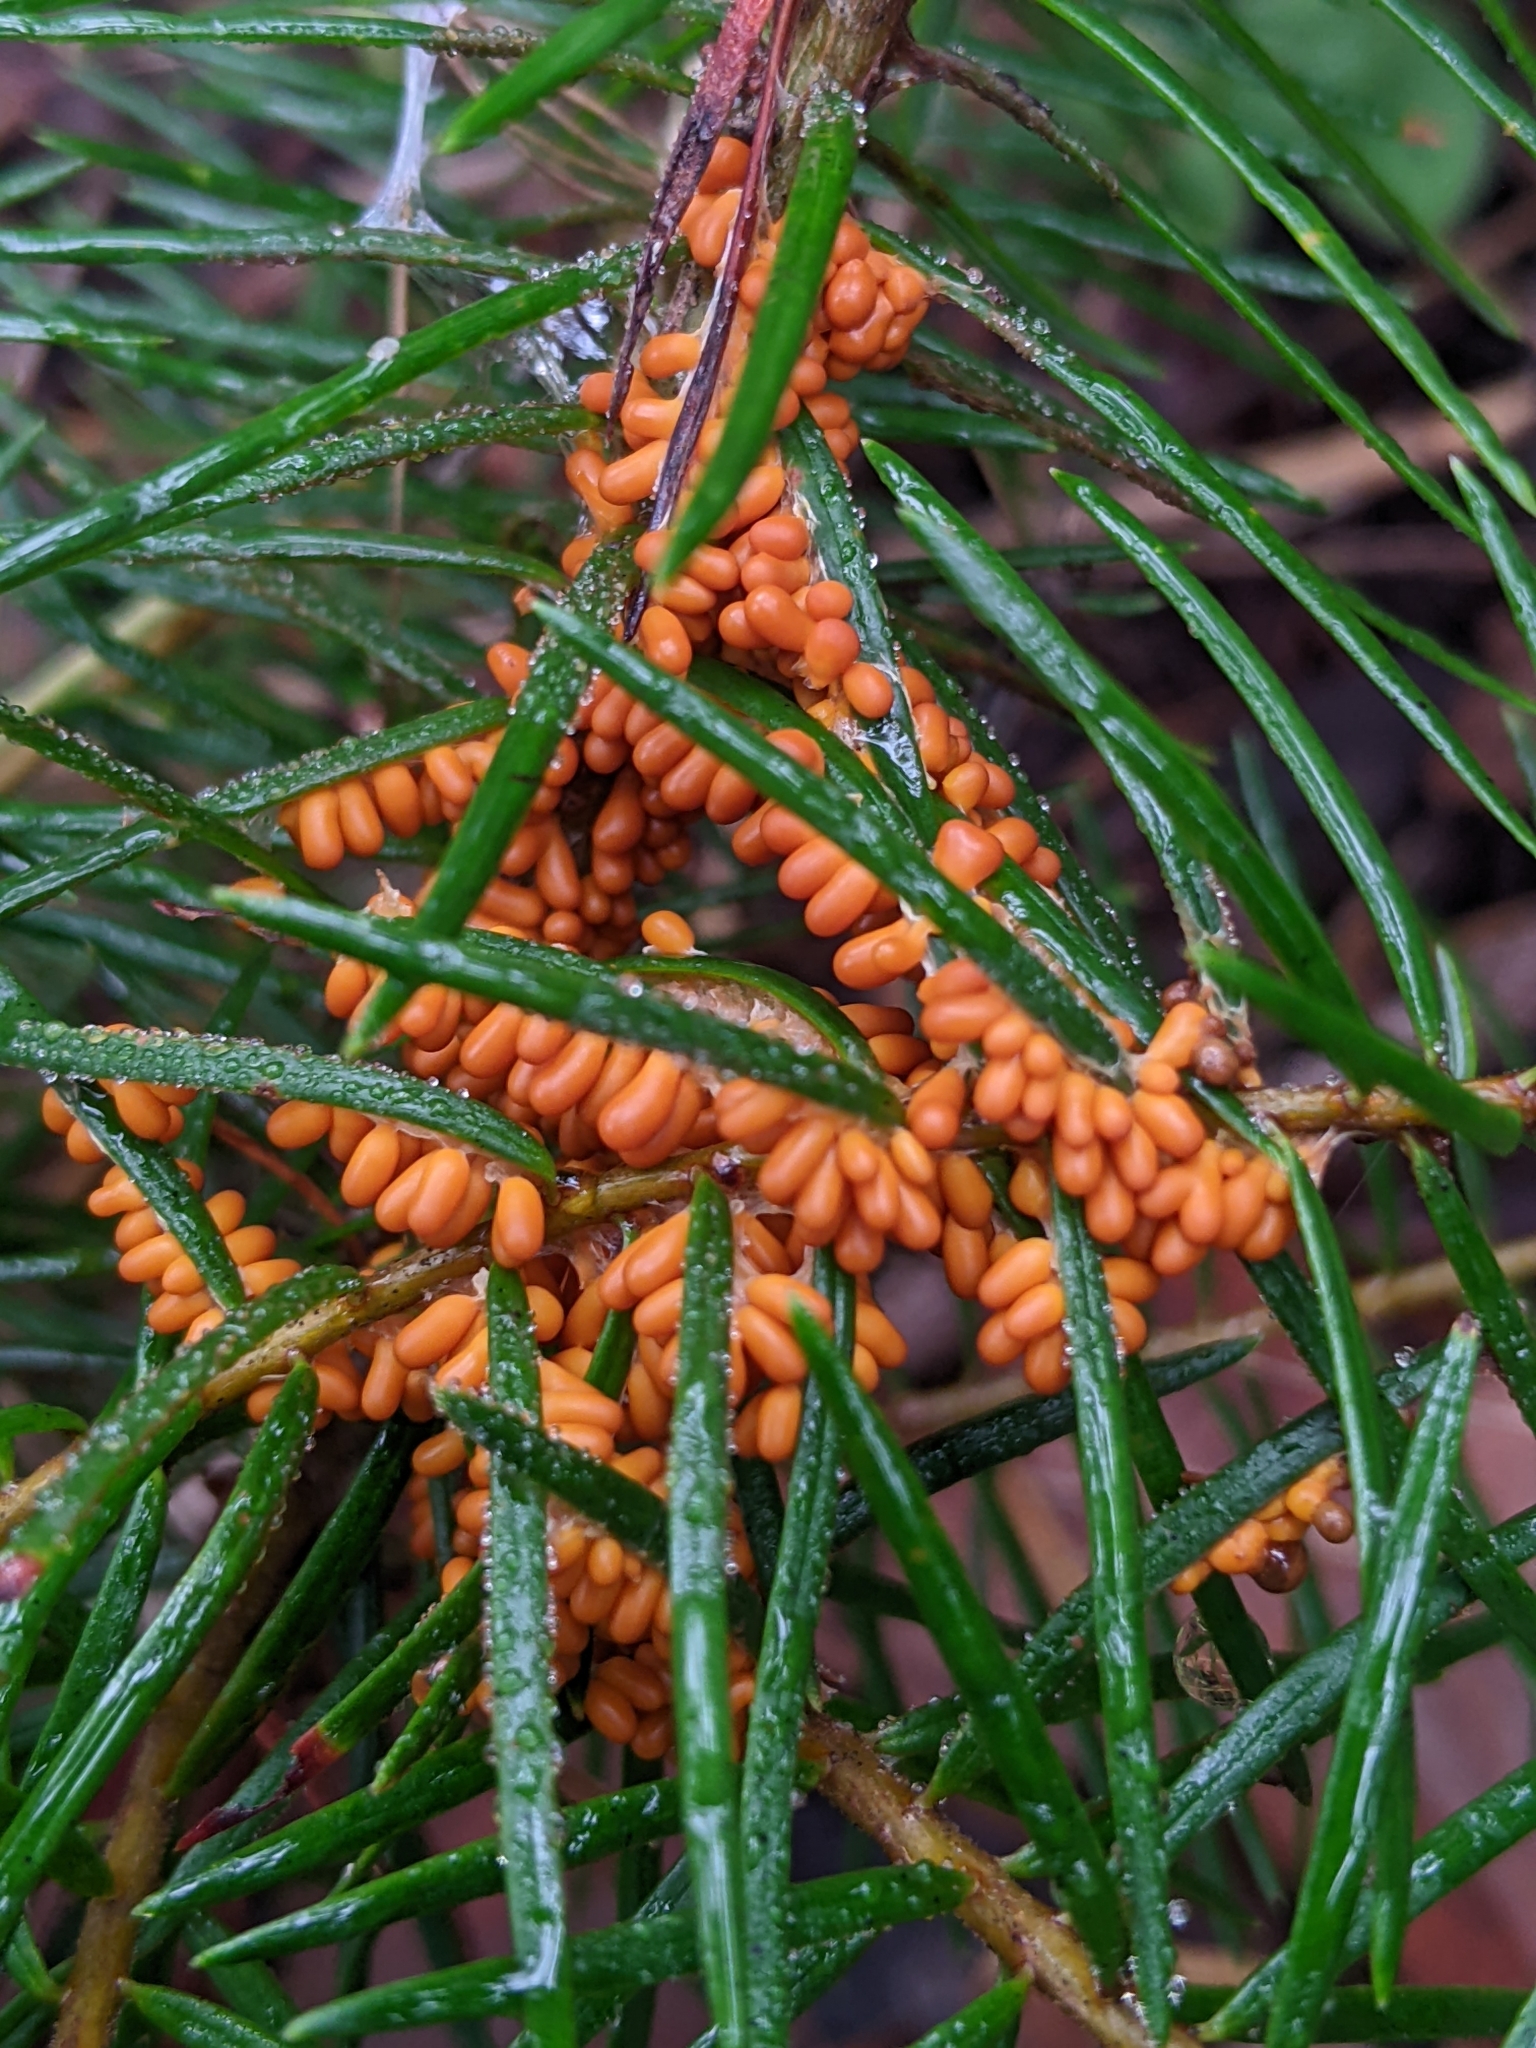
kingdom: Protozoa
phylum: Mycetozoa
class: Myxomycetes
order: Physarales
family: Physaraceae
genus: Leocarpus
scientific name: Leocarpus fragilis
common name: Insect-egg slime
